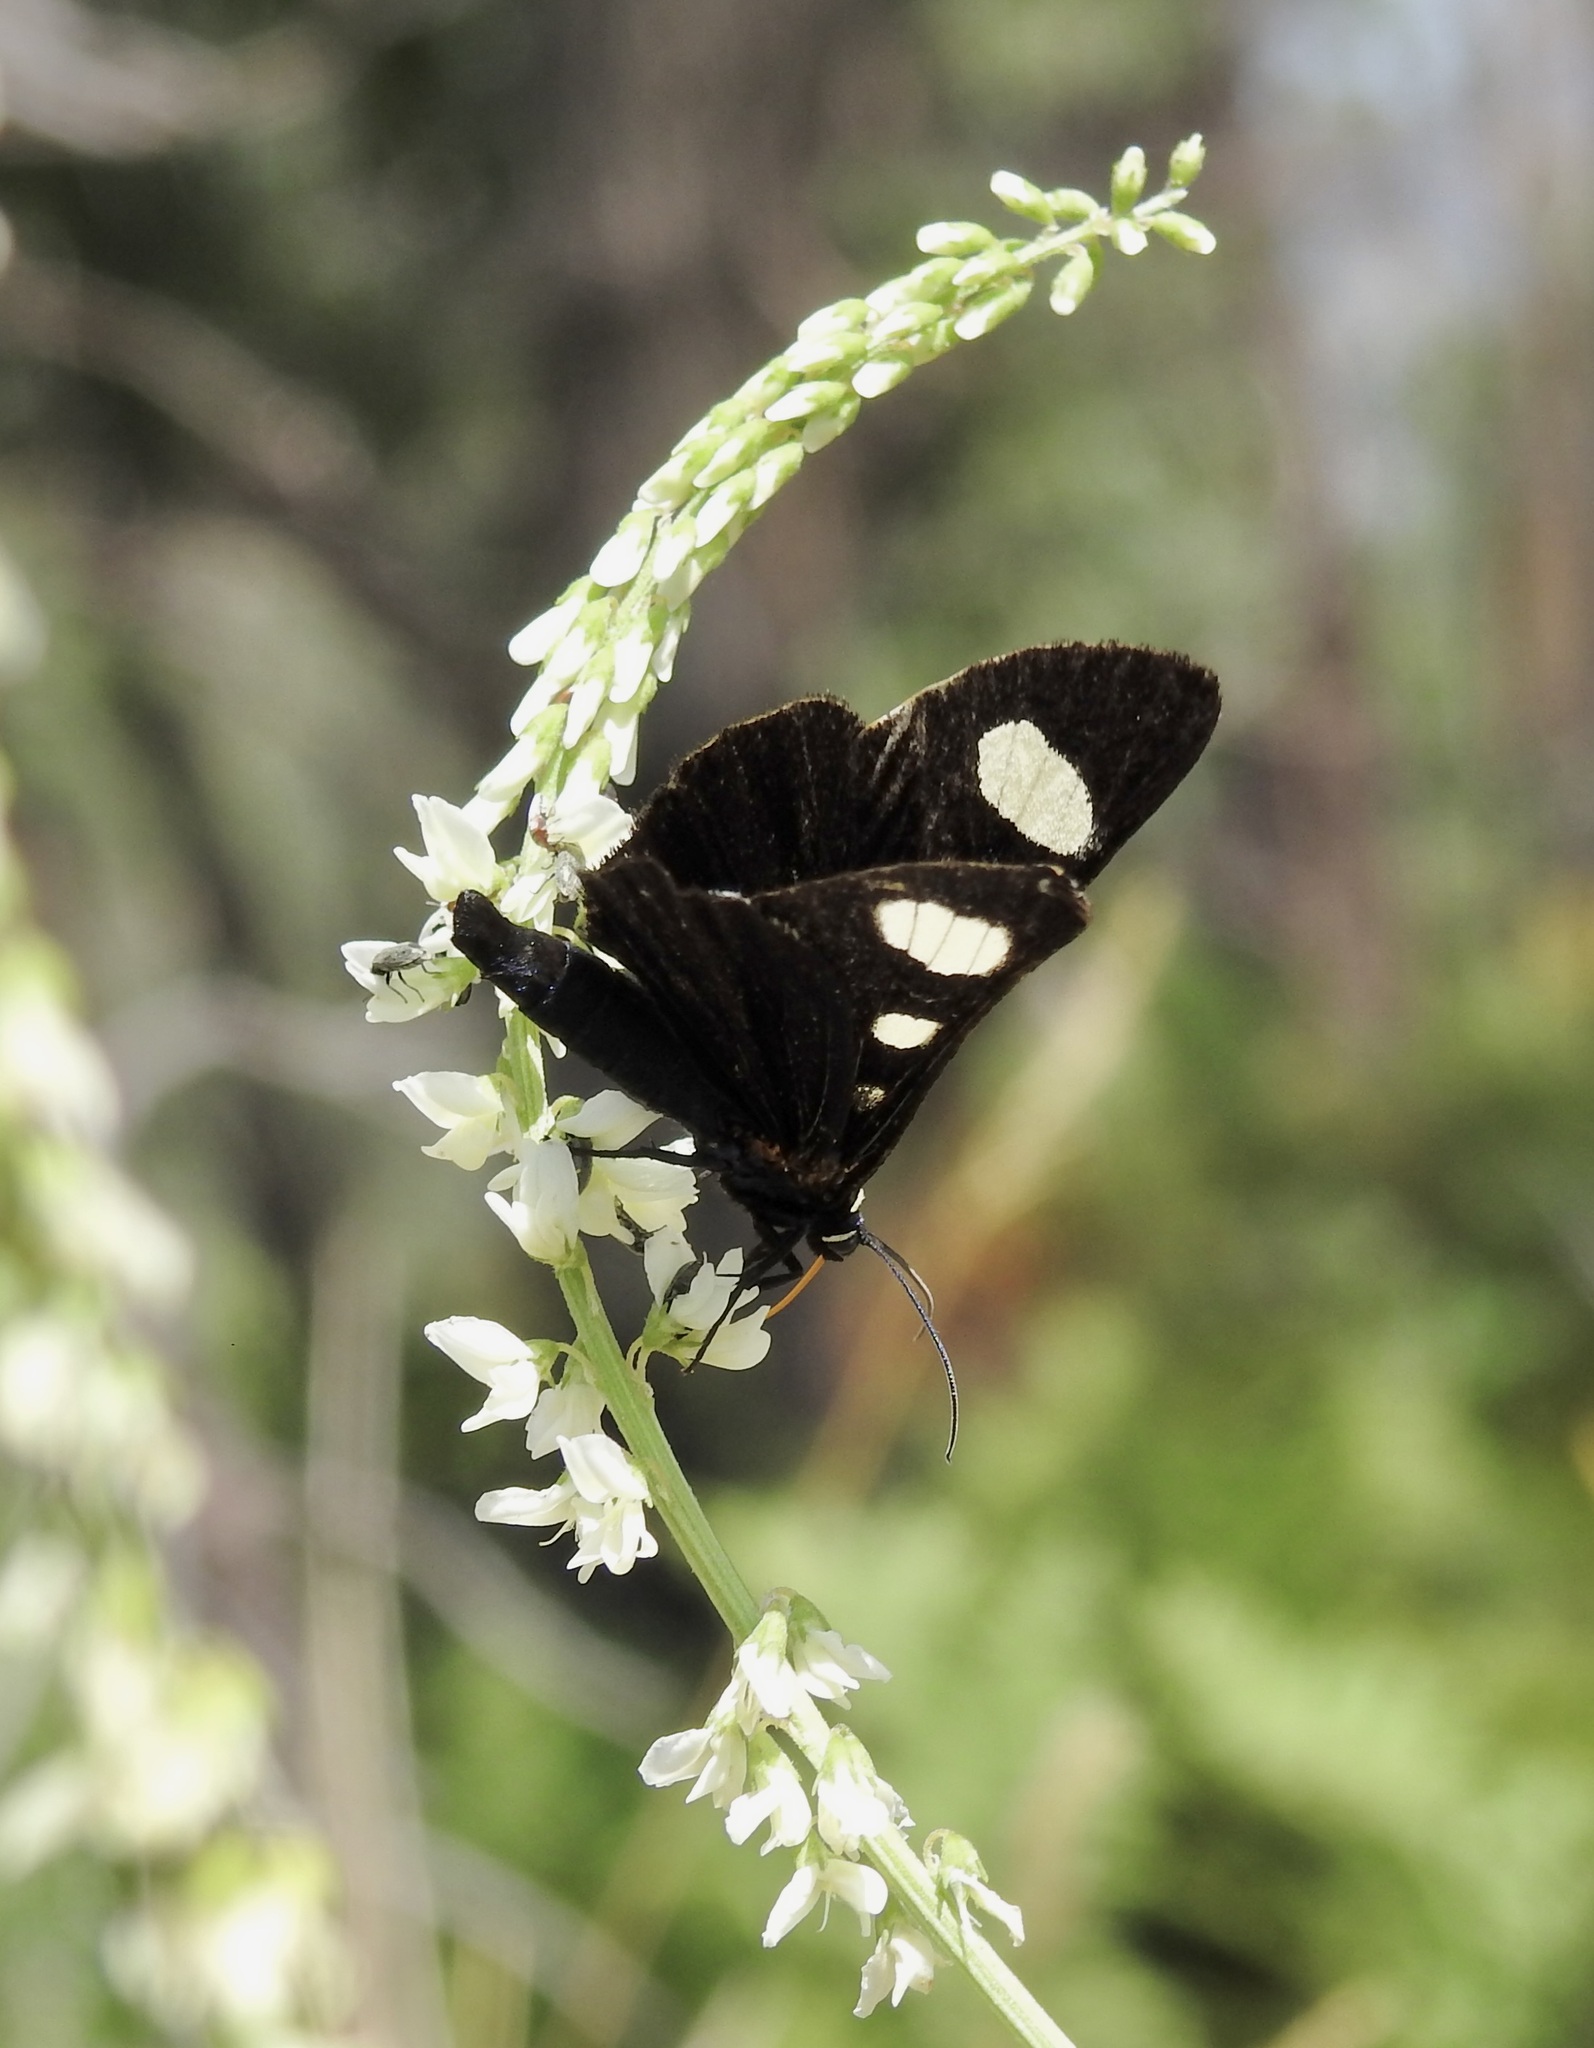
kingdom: Animalia
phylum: Arthropoda
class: Insecta
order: Lepidoptera
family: Noctuidae
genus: Alypiodes
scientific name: Alypiodes bimaculata
